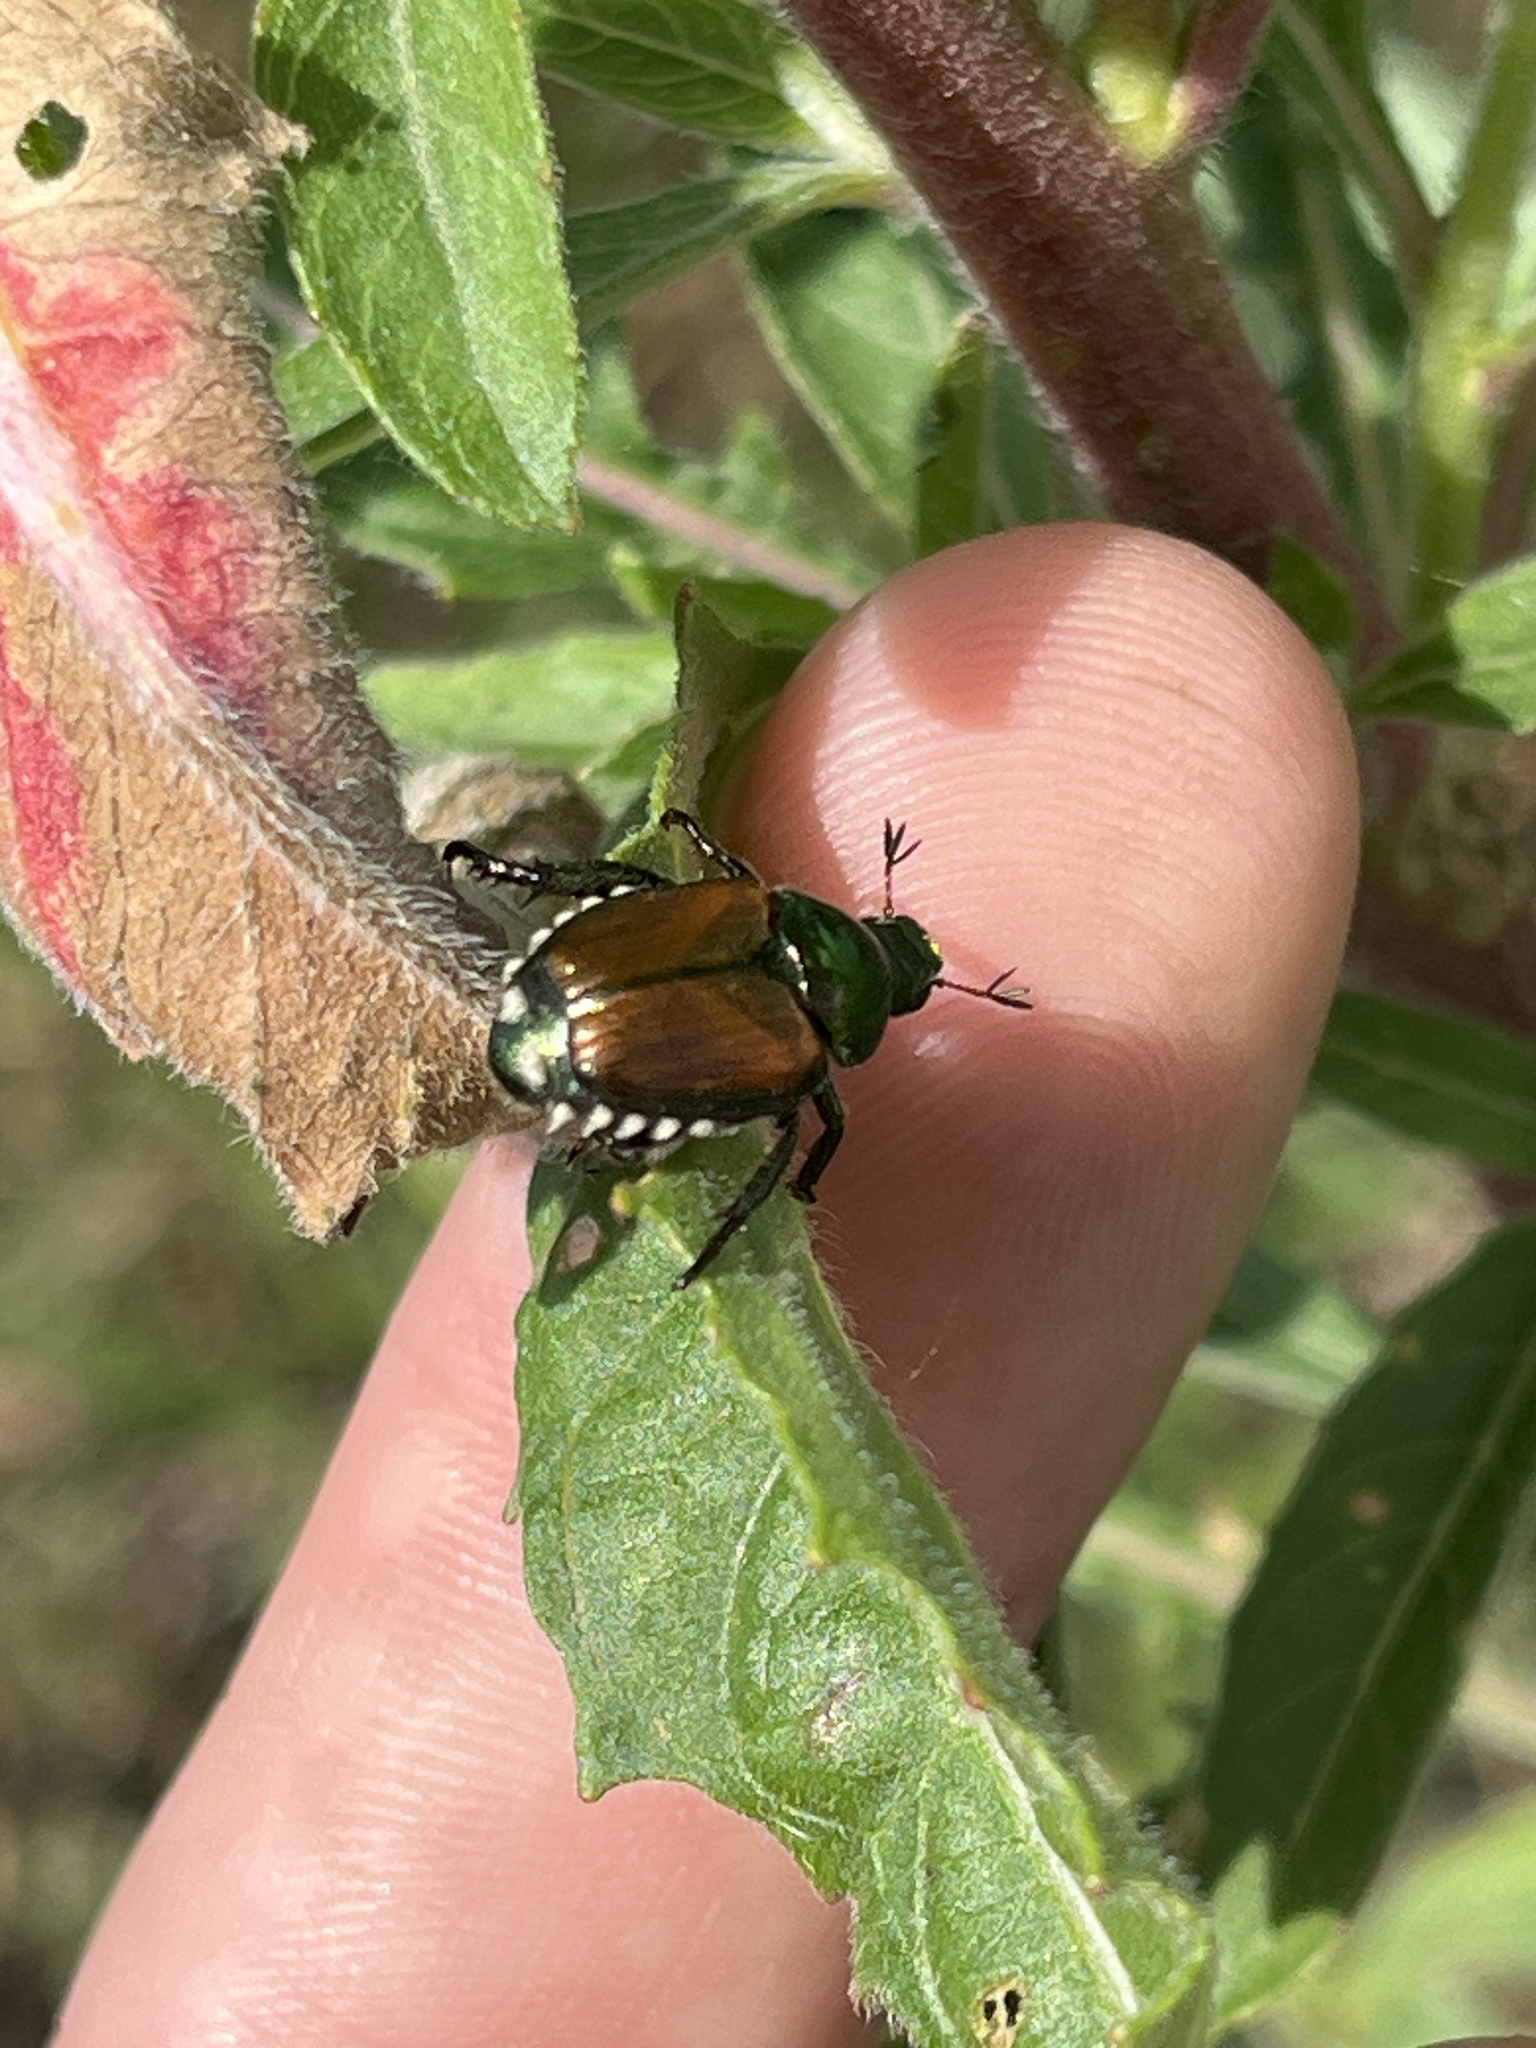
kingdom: Animalia
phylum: Arthropoda
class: Insecta
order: Coleoptera
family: Scarabaeidae
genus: Popillia
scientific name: Popillia japonica
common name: Japanese beetle
